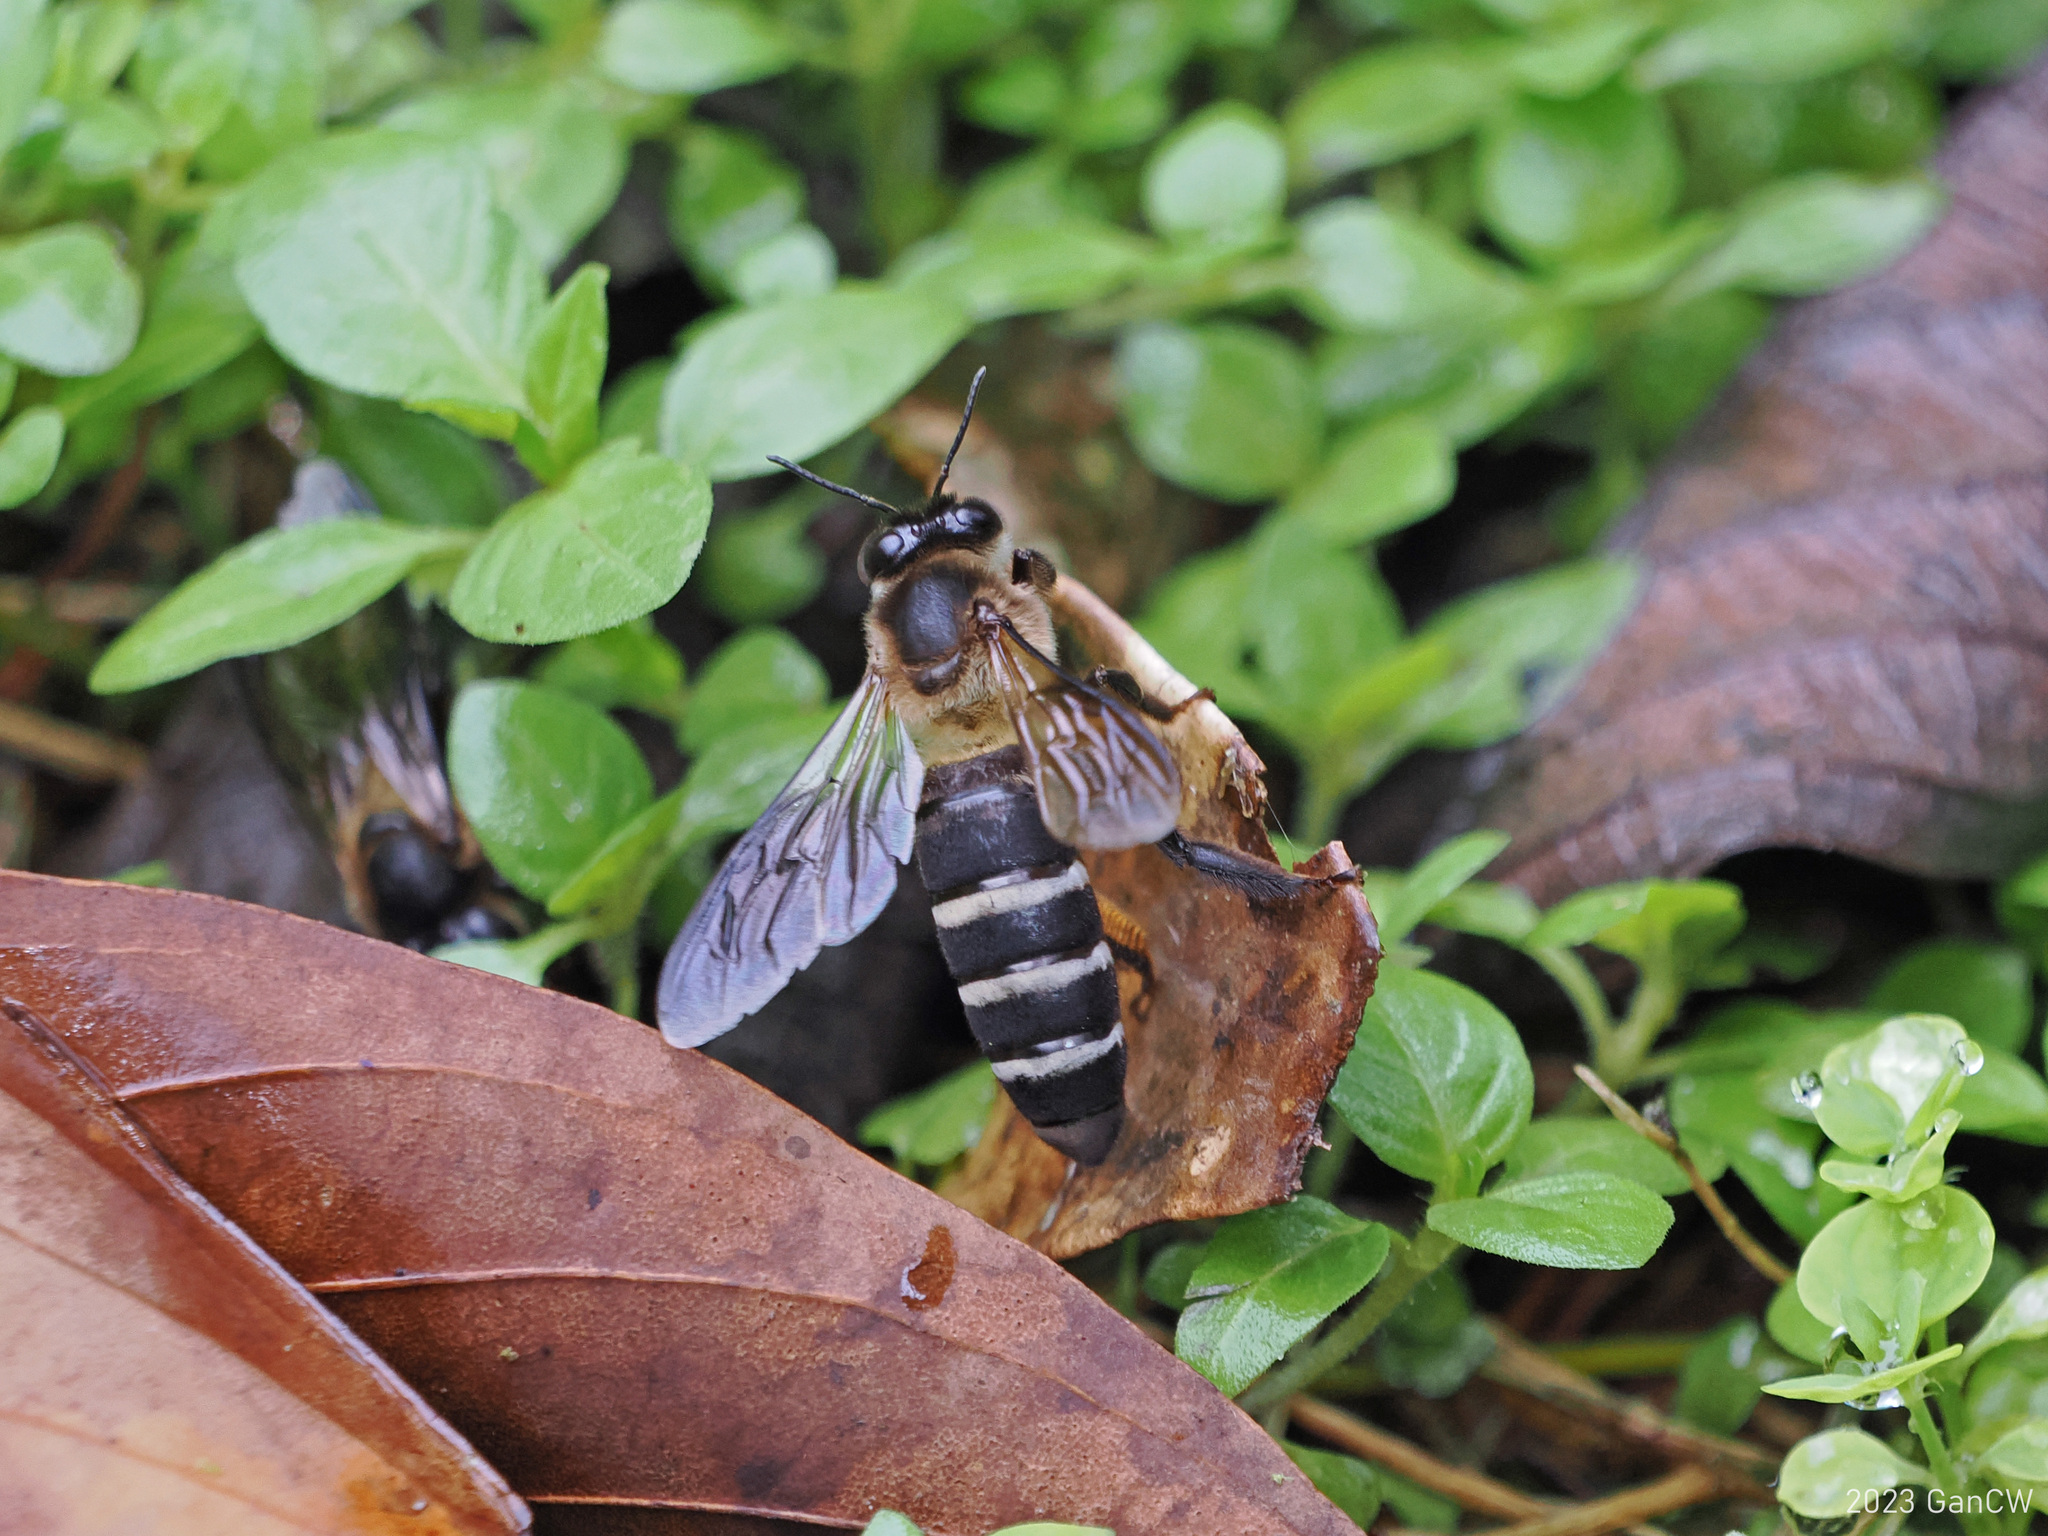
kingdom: Animalia
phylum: Arthropoda
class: Insecta
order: Hymenoptera
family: Apidae
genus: Apis
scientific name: Apis dorsata
